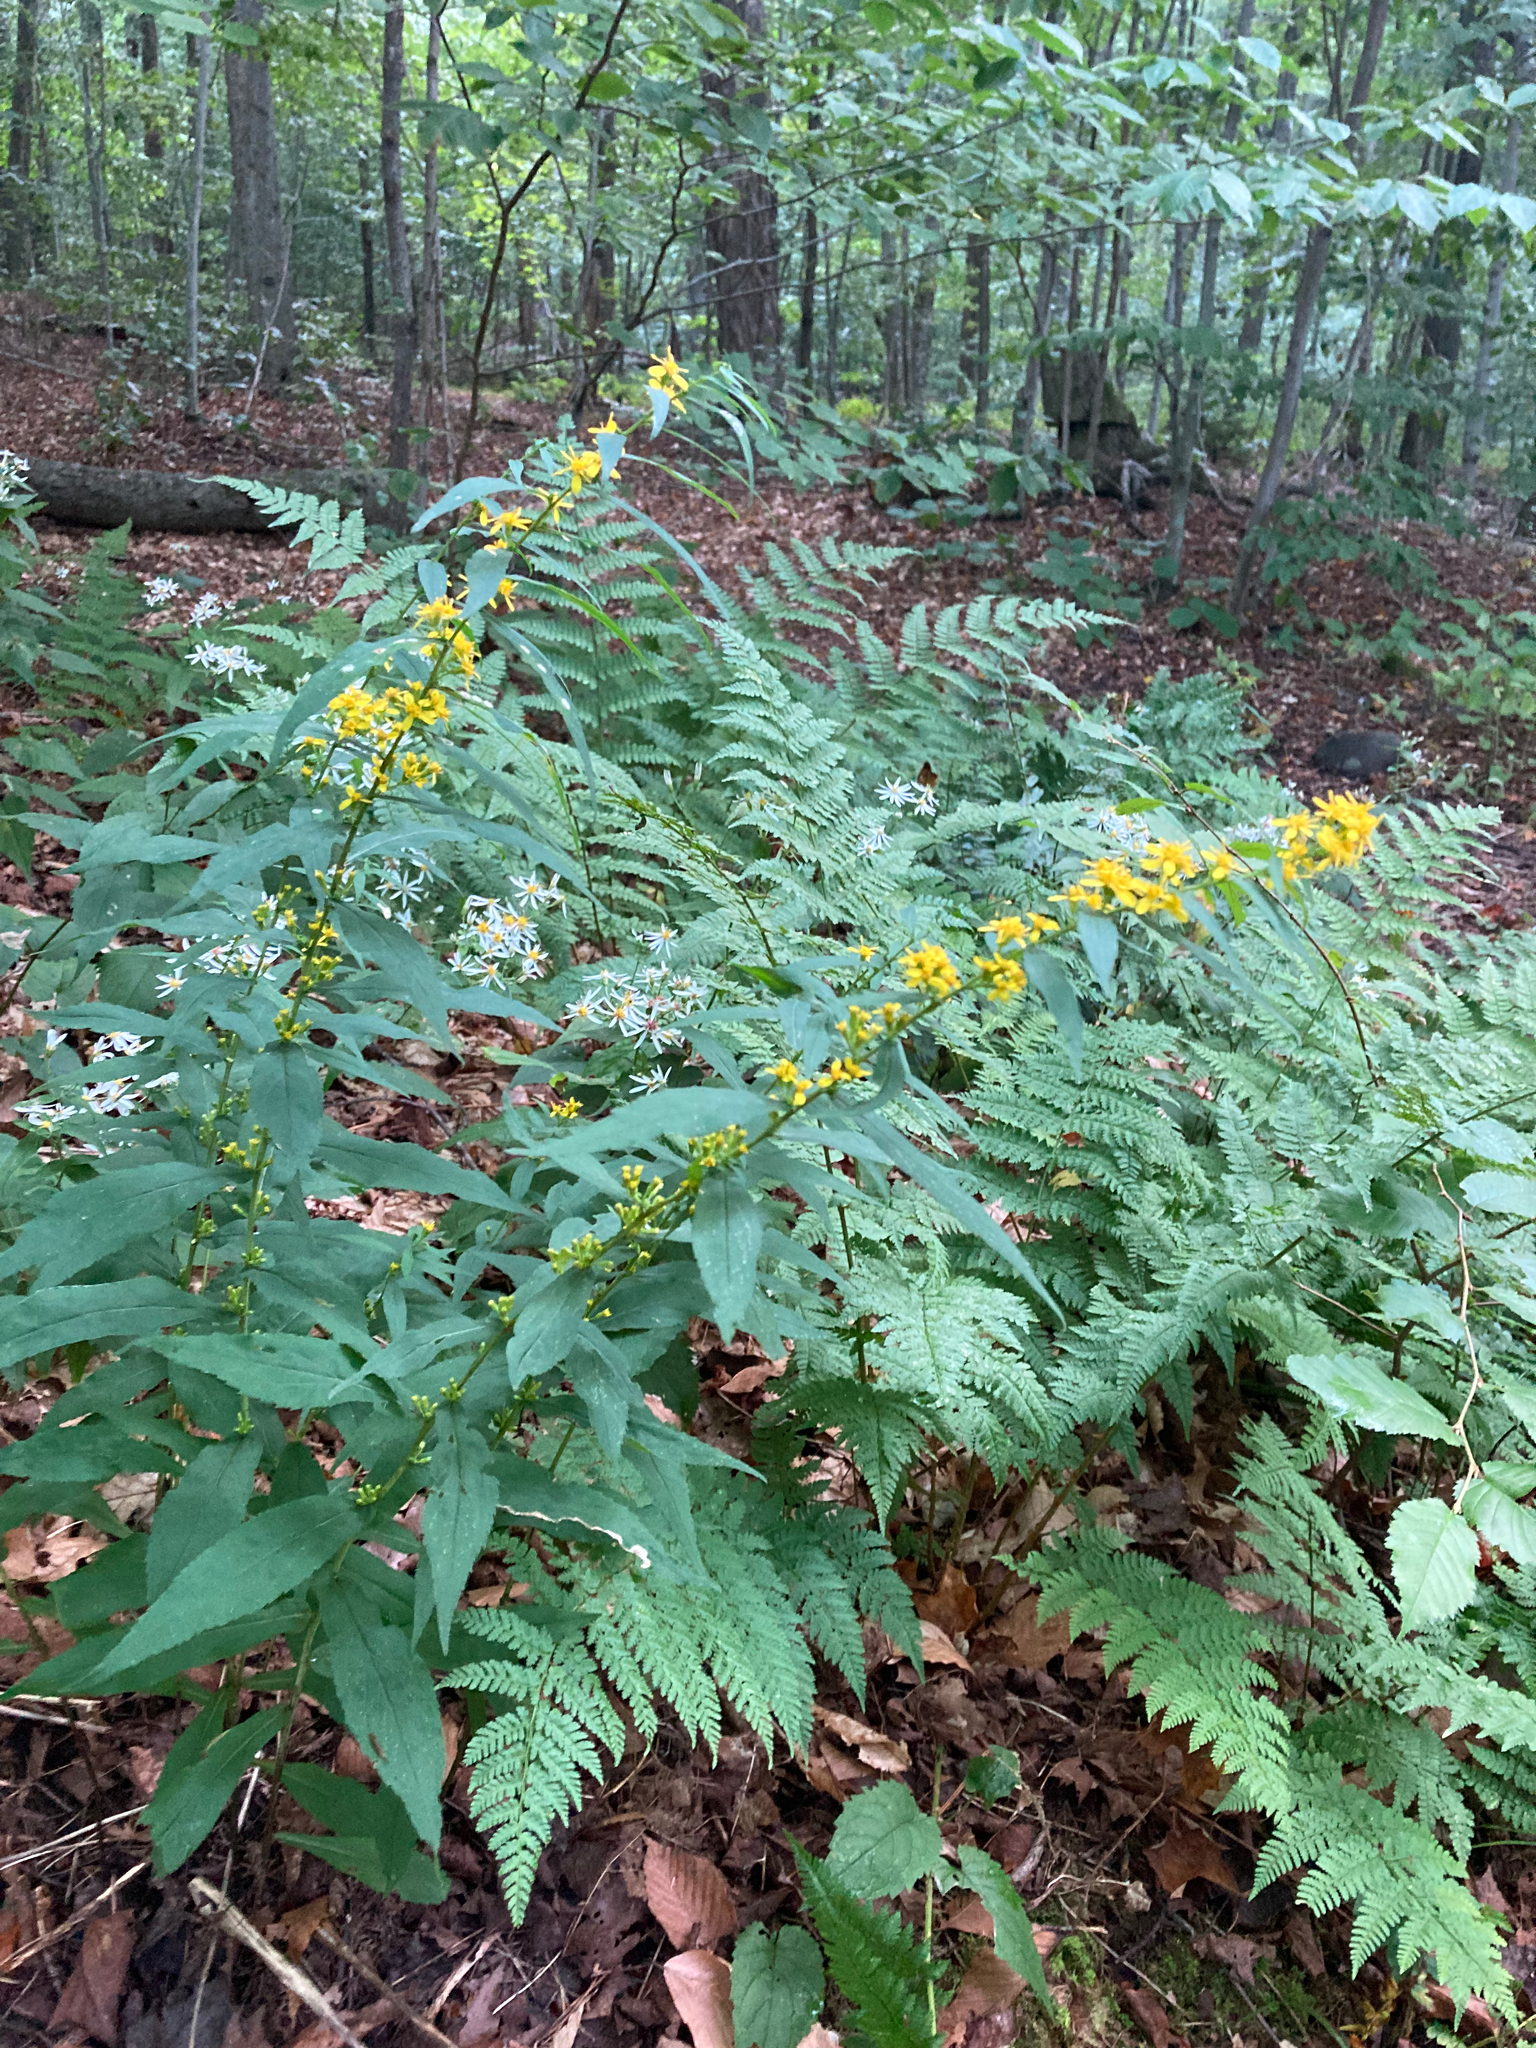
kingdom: Plantae
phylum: Tracheophyta
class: Magnoliopsida
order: Asterales
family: Asteraceae
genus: Solidago
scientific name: Solidago caesia
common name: Woodland goldenrod
